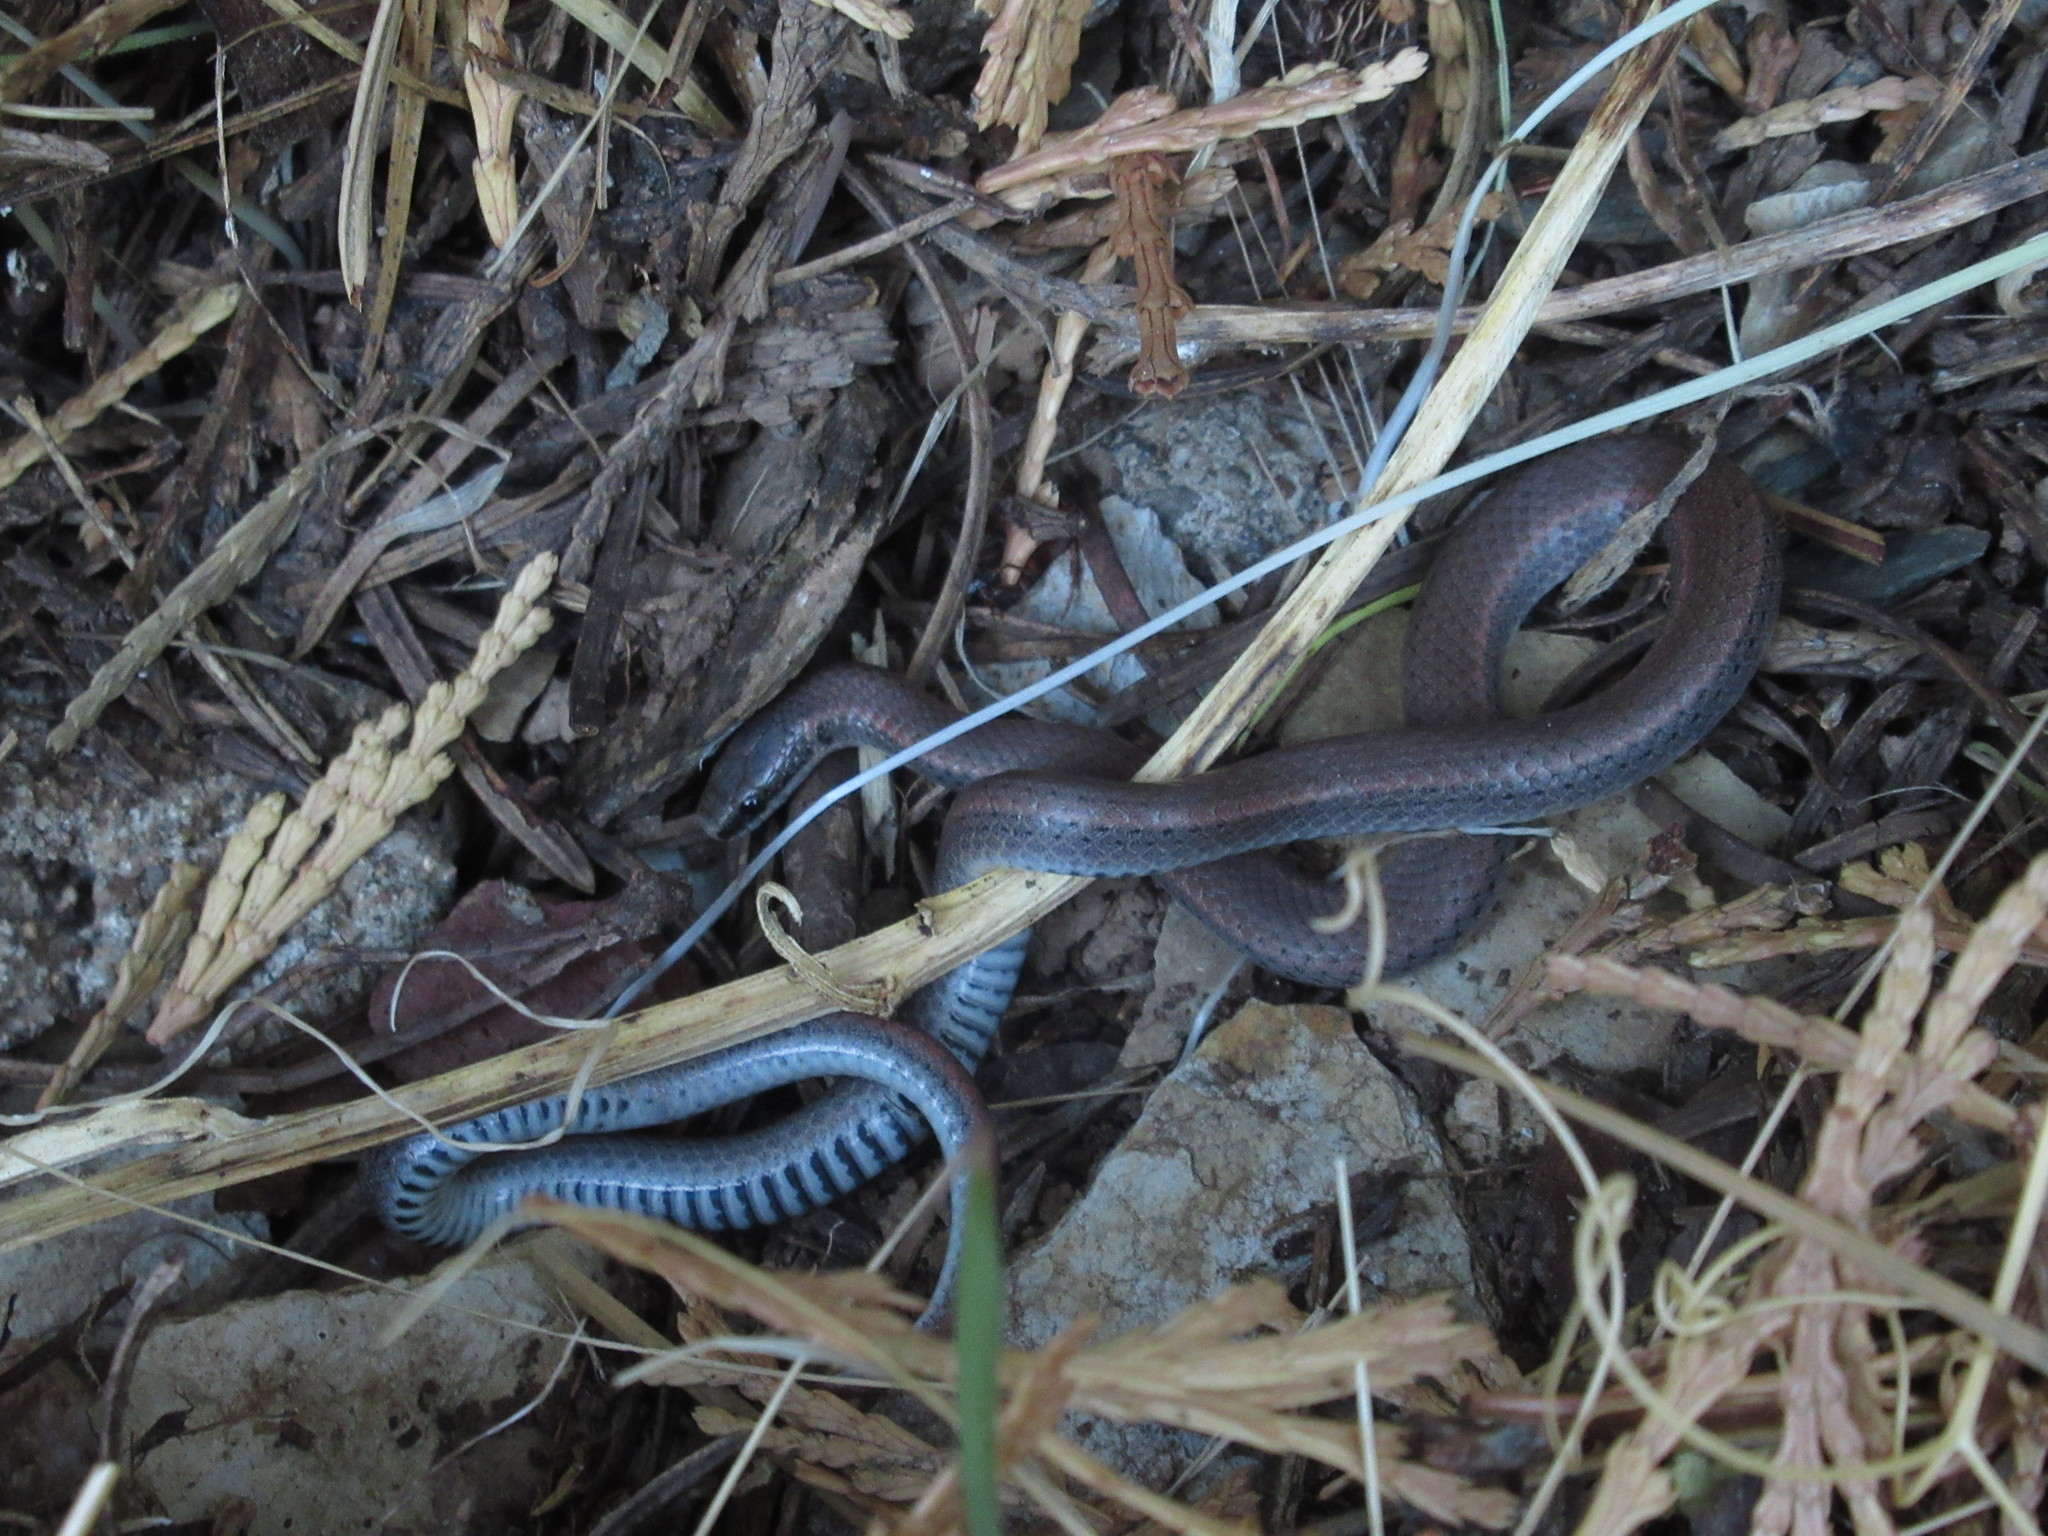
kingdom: Animalia
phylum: Chordata
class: Squamata
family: Colubridae
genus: Contia
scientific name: Contia tenuis
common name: Sharptail snake
